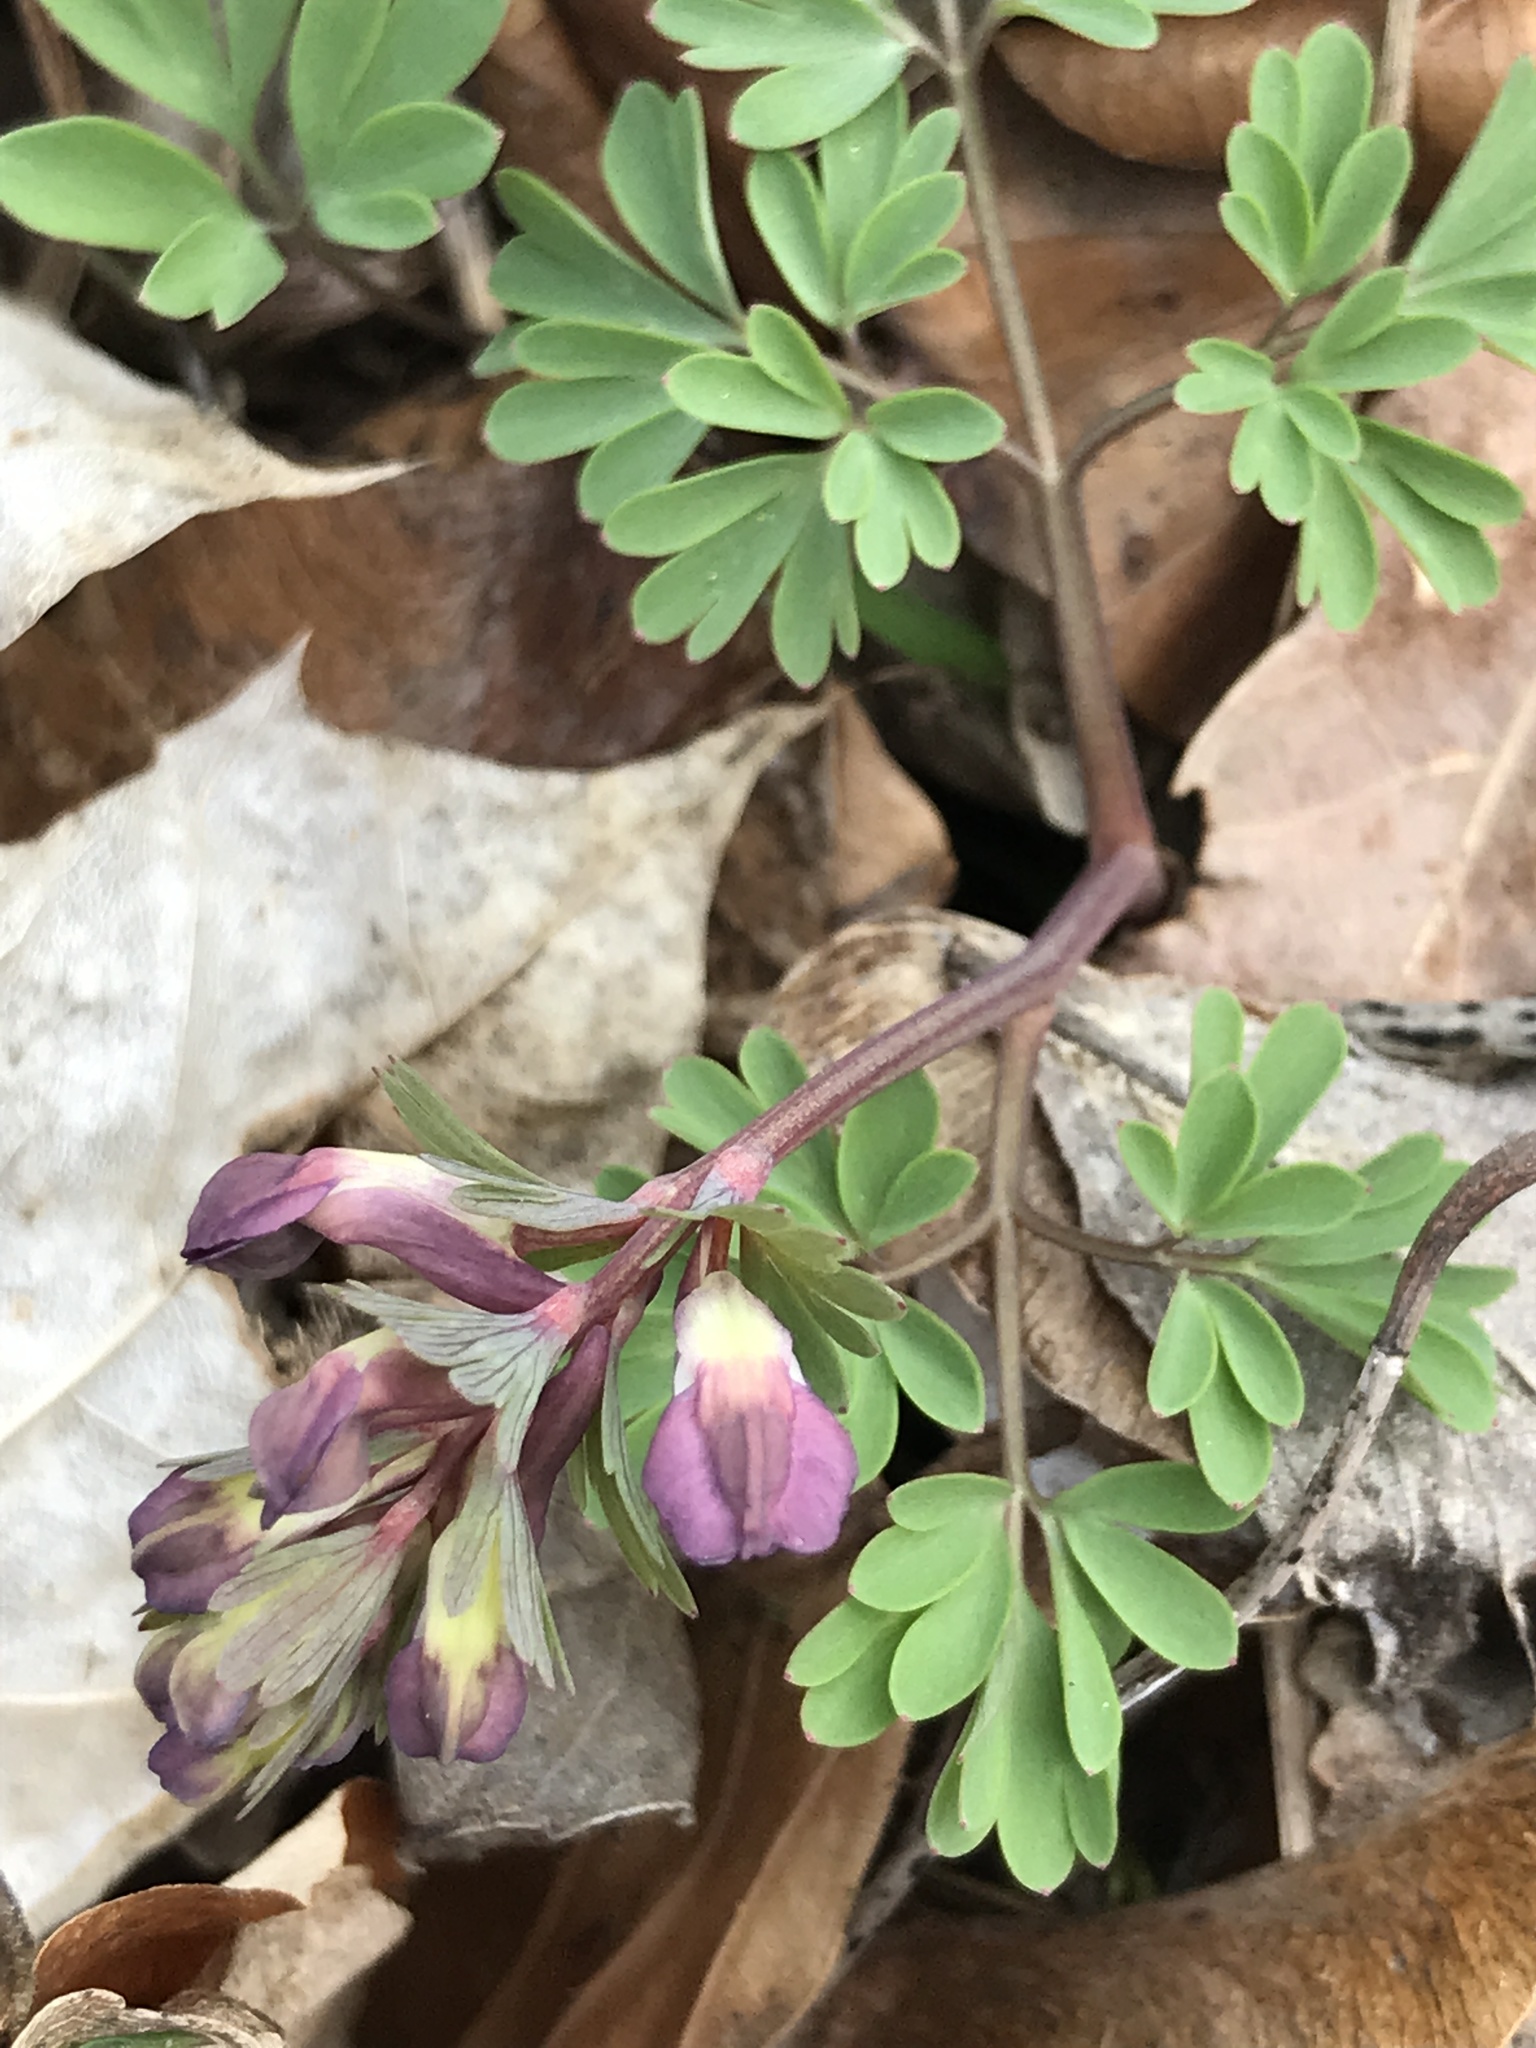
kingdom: Plantae
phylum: Tracheophyta
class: Magnoliopsida
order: Ranunculales
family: Papaveraceae
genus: Corydalis
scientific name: Corydalis solida
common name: Bird-in-a-bush
